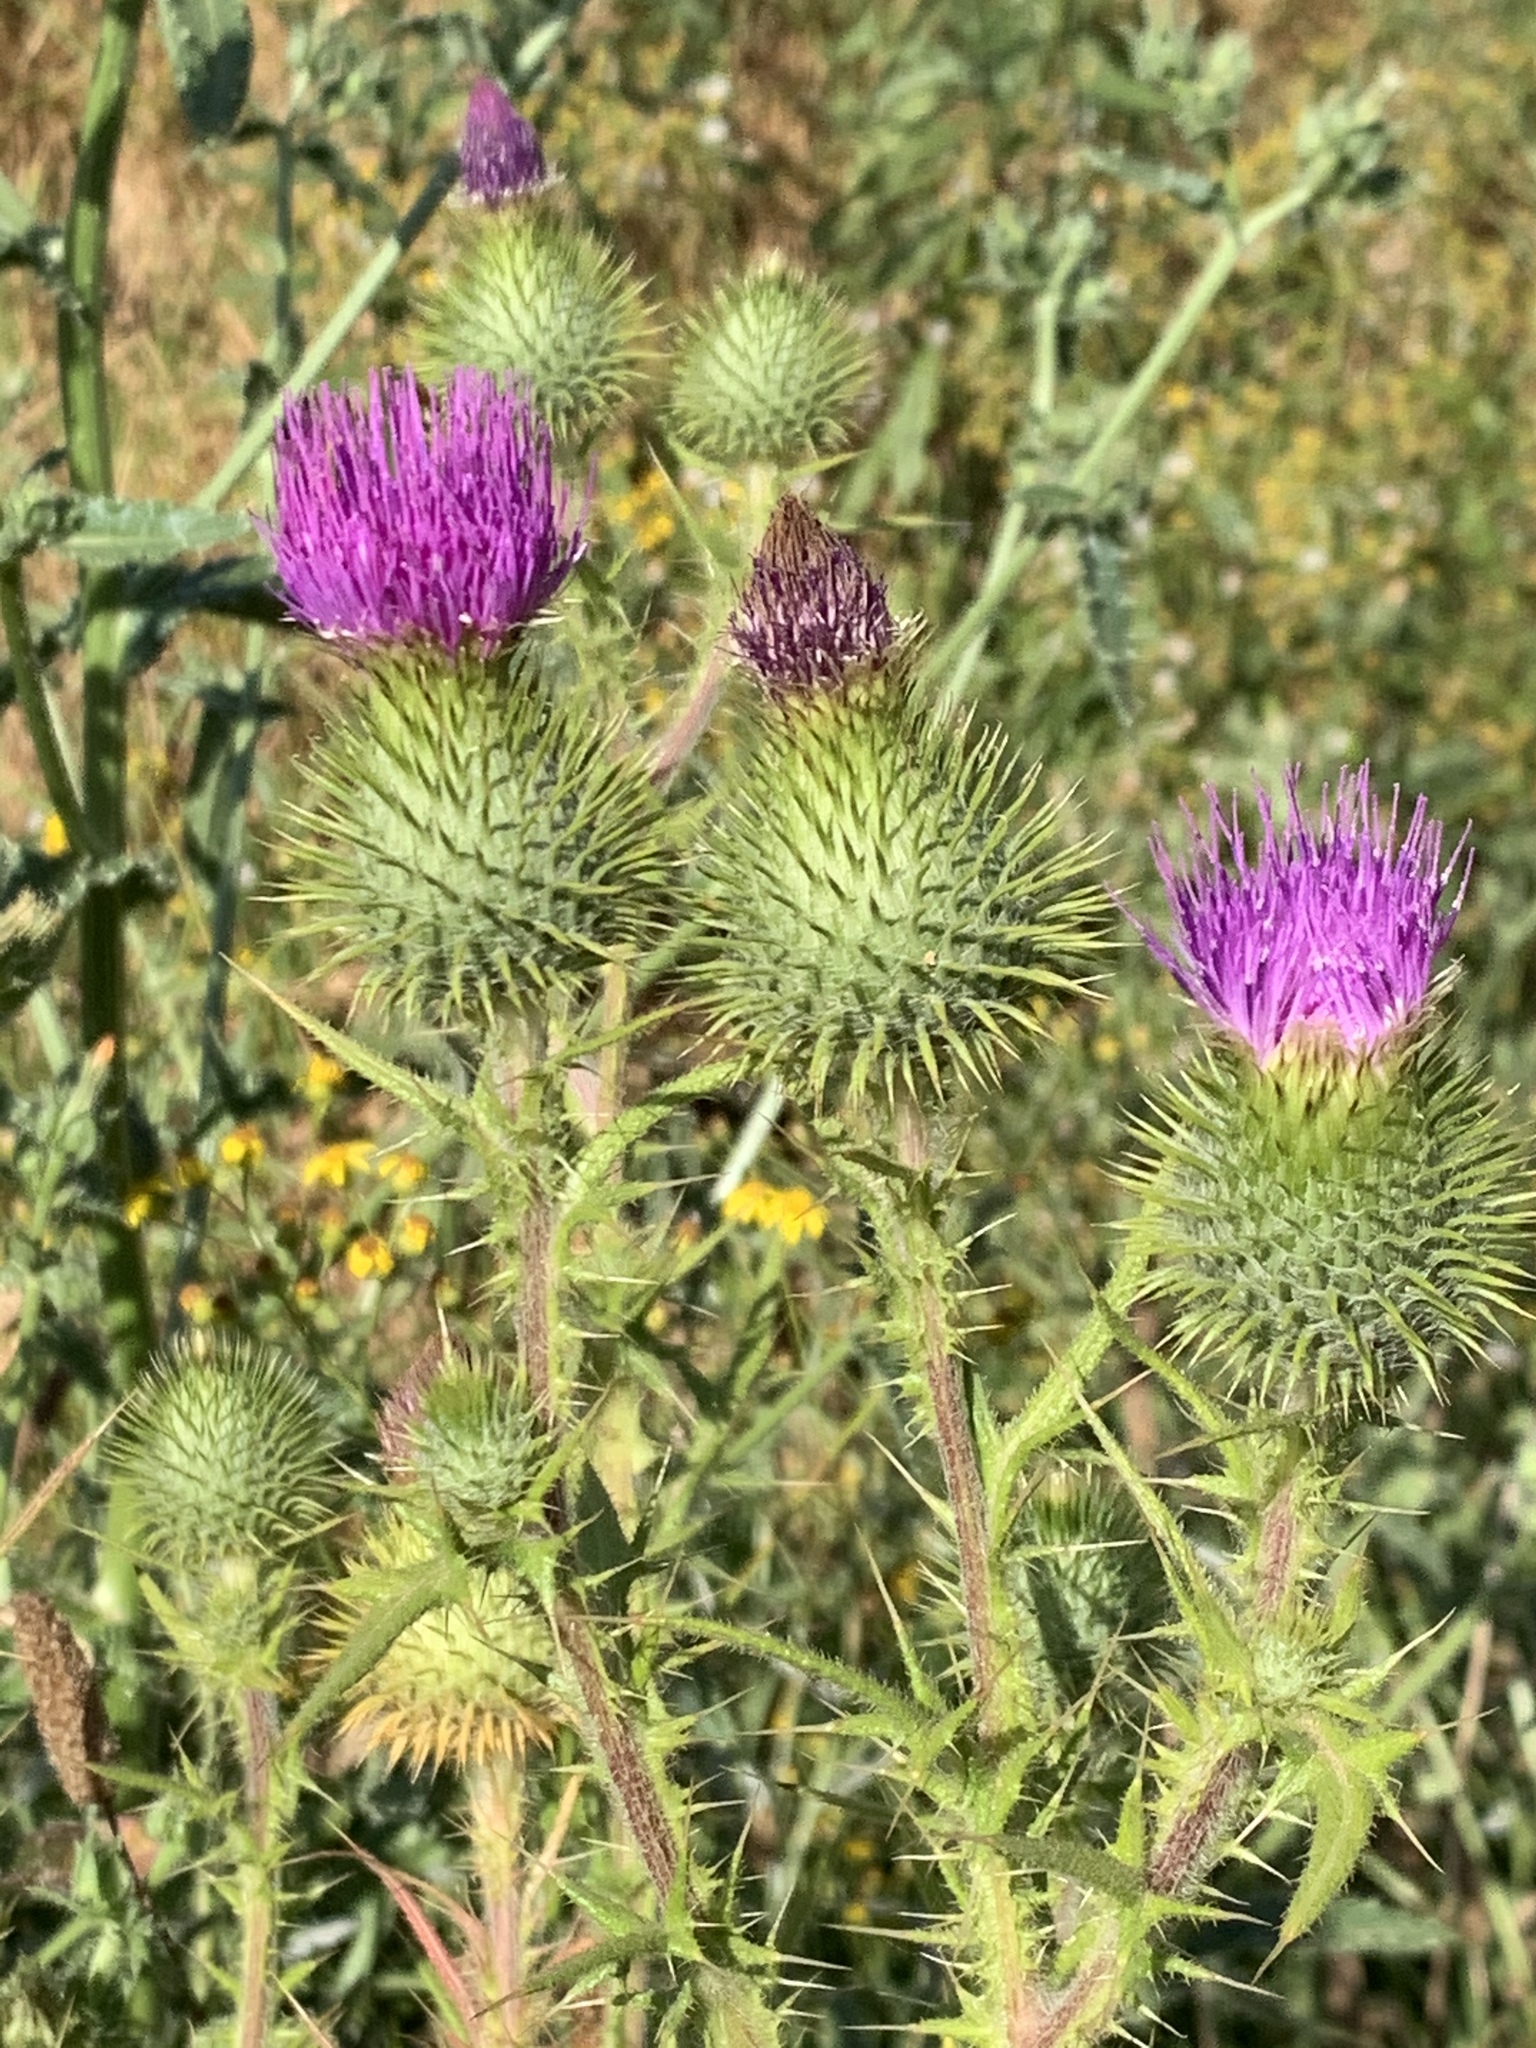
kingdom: Plantae
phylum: Tracheophyta
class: Magnoliopsida
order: Asterales
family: Asteraceae
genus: Cirsium
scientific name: Cirsium vulgare
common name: Bull thistle
